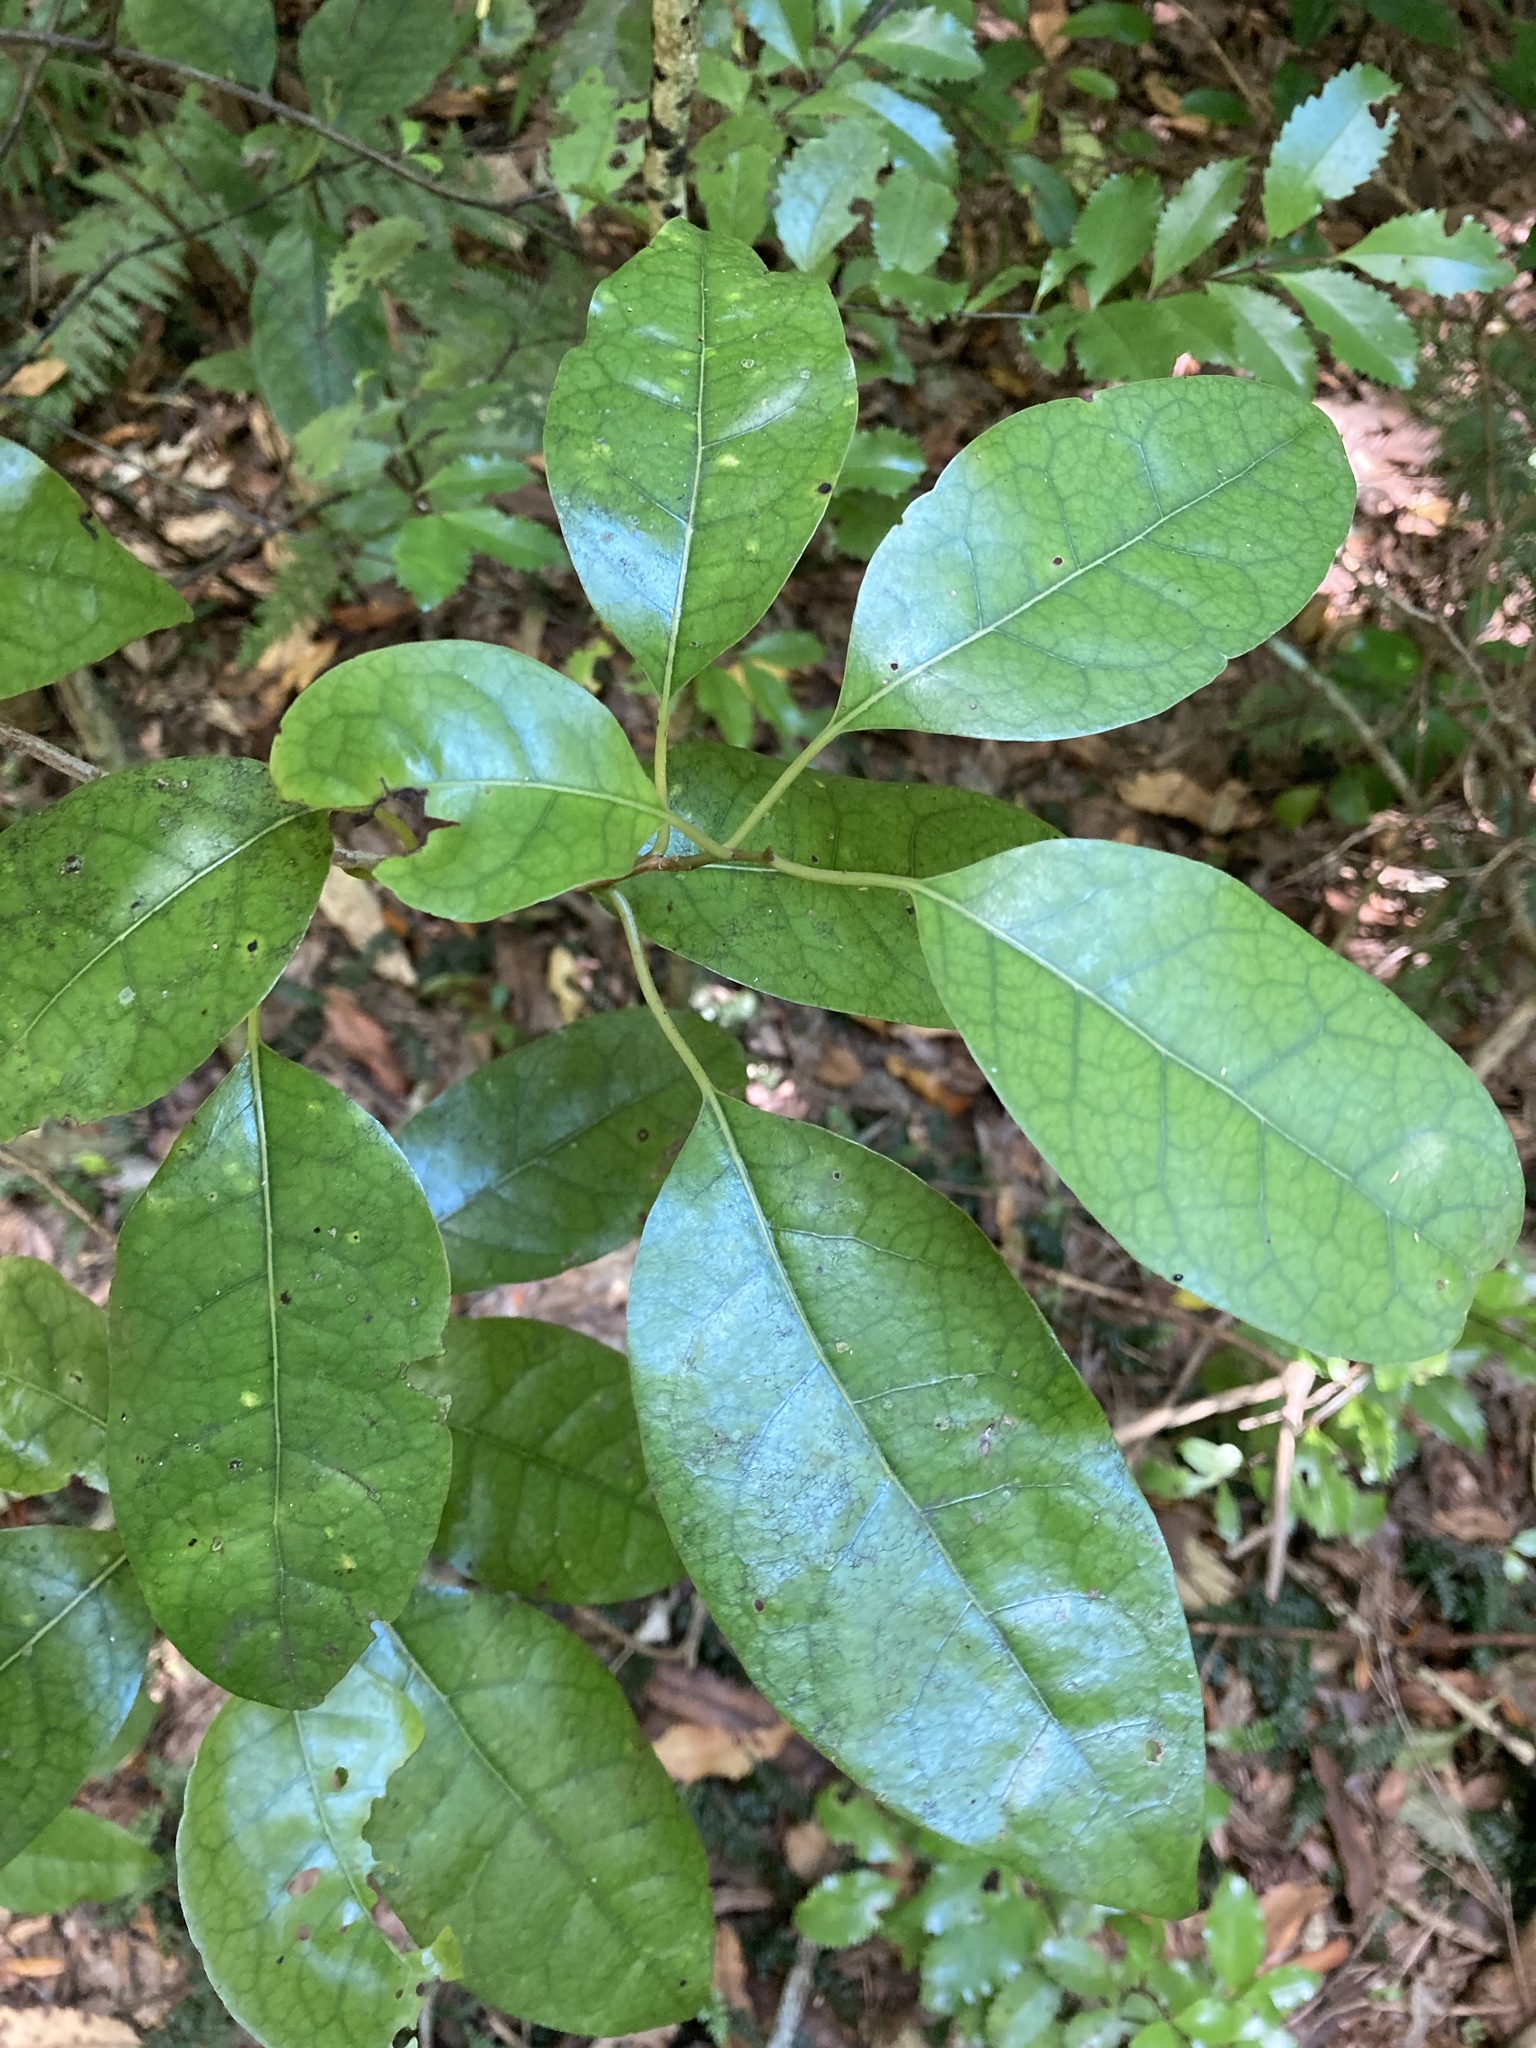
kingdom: Plantae
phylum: Tracheophyta
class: Magnoliopsida
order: Laurales
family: Lauraceae
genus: Litsea
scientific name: Litsea calicaris
